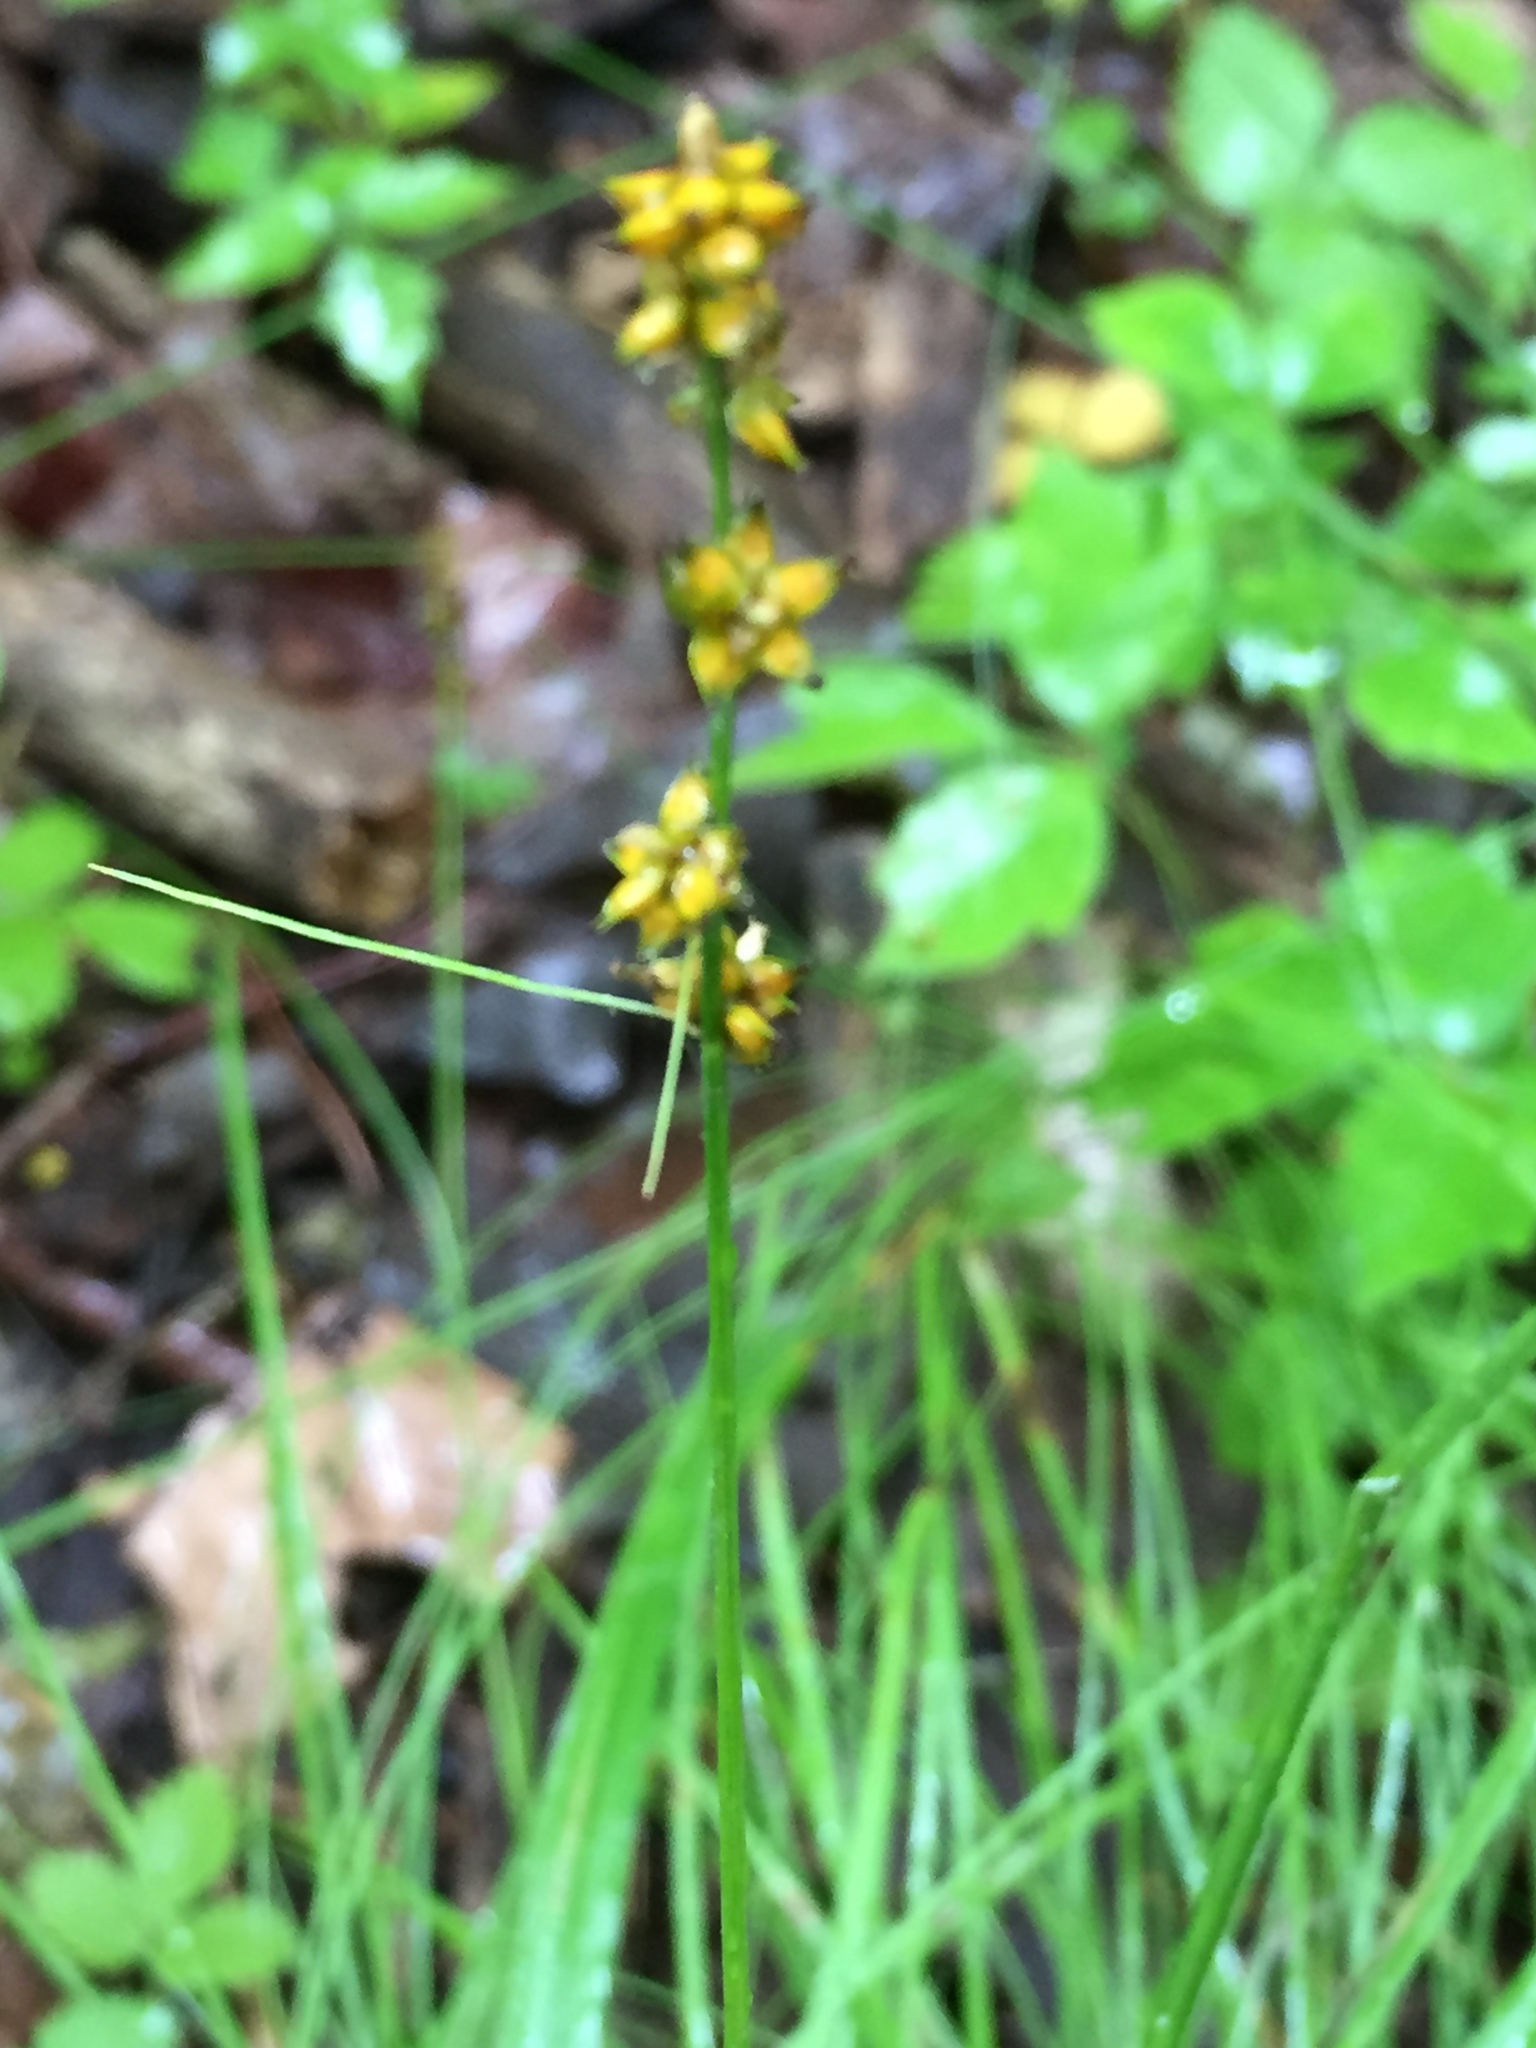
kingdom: Plantae
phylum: Tracheophyta
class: Liliopsida
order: Poales
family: Cyperaceae
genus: Carex
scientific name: Carex rosea
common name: Curly-styled wood sedge
